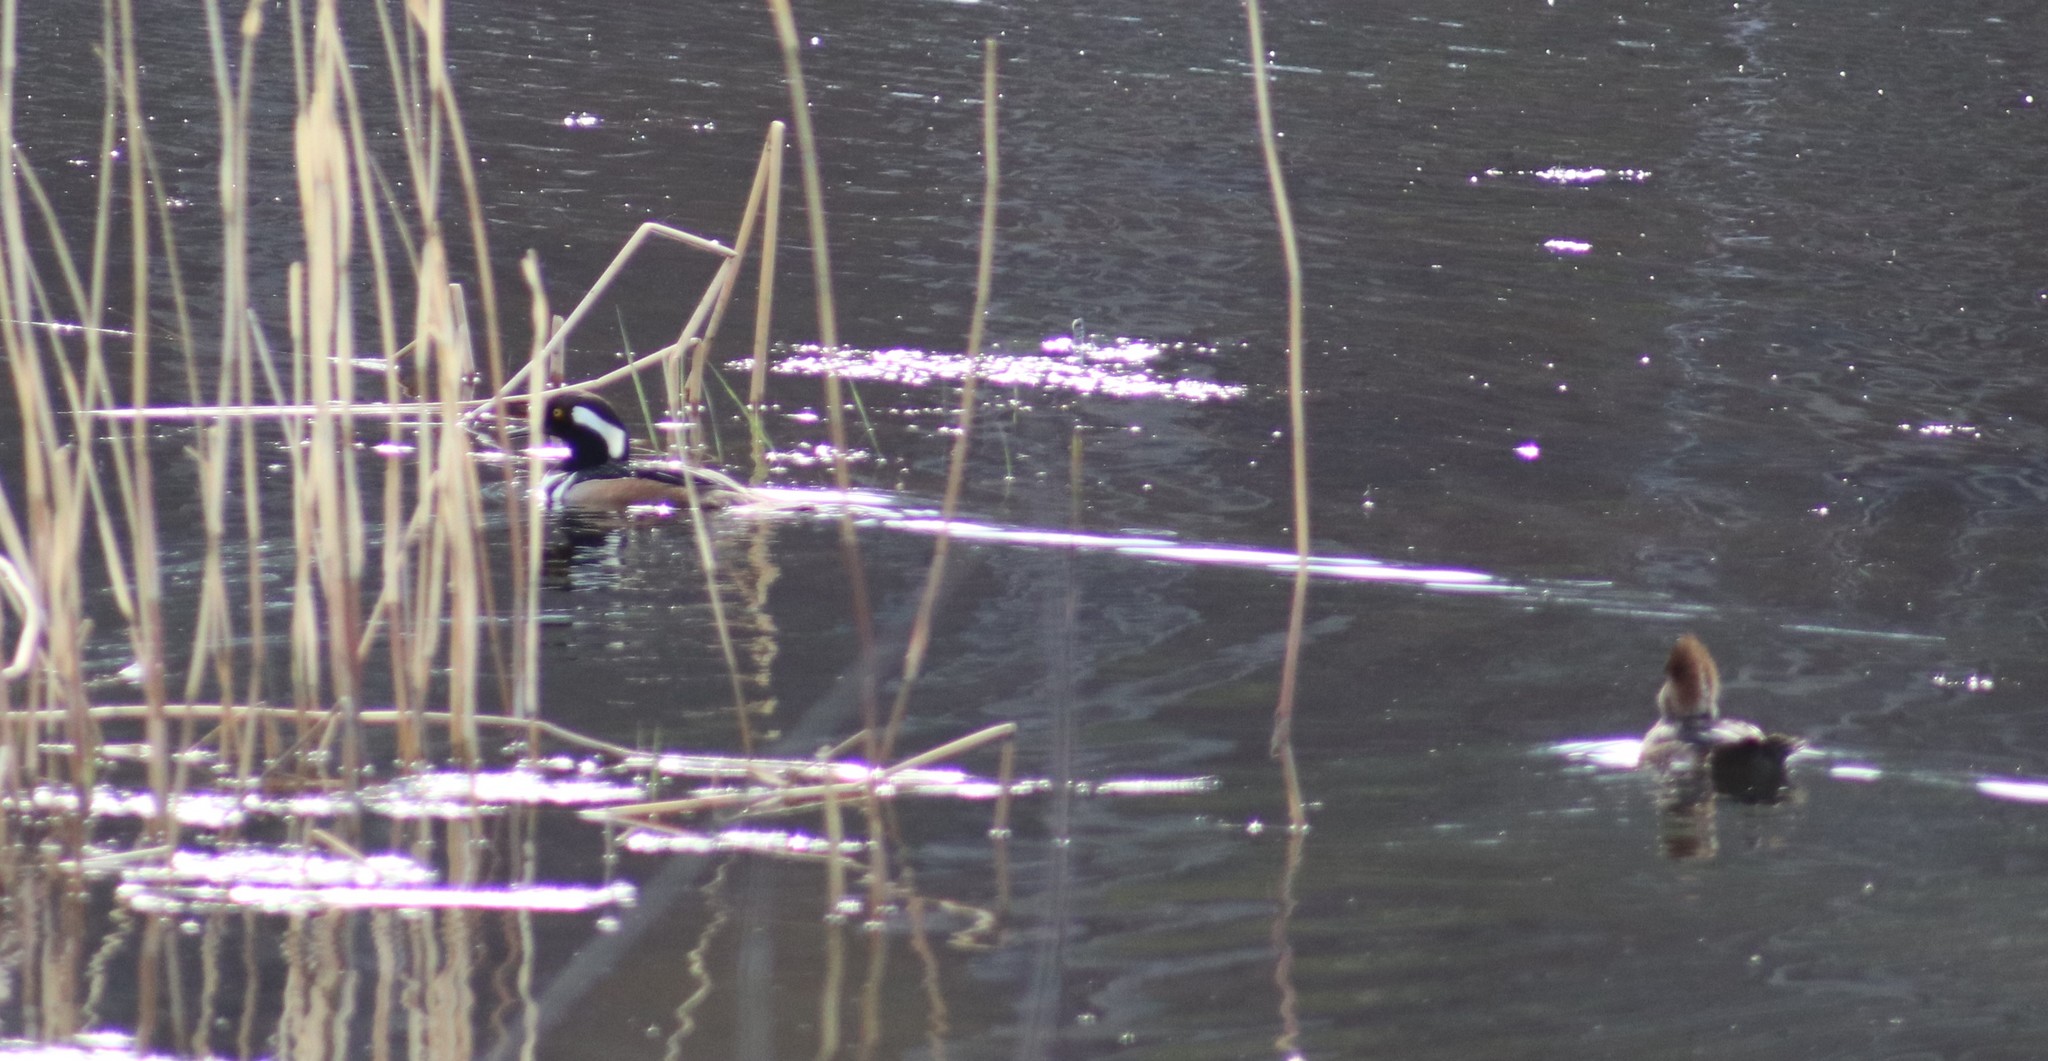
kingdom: Animalia
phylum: Chordata
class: Aves
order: Anseriformes
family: Anatidae
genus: Lophodytes
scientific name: Lophodytes cucullatus
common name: Hooded merganser
